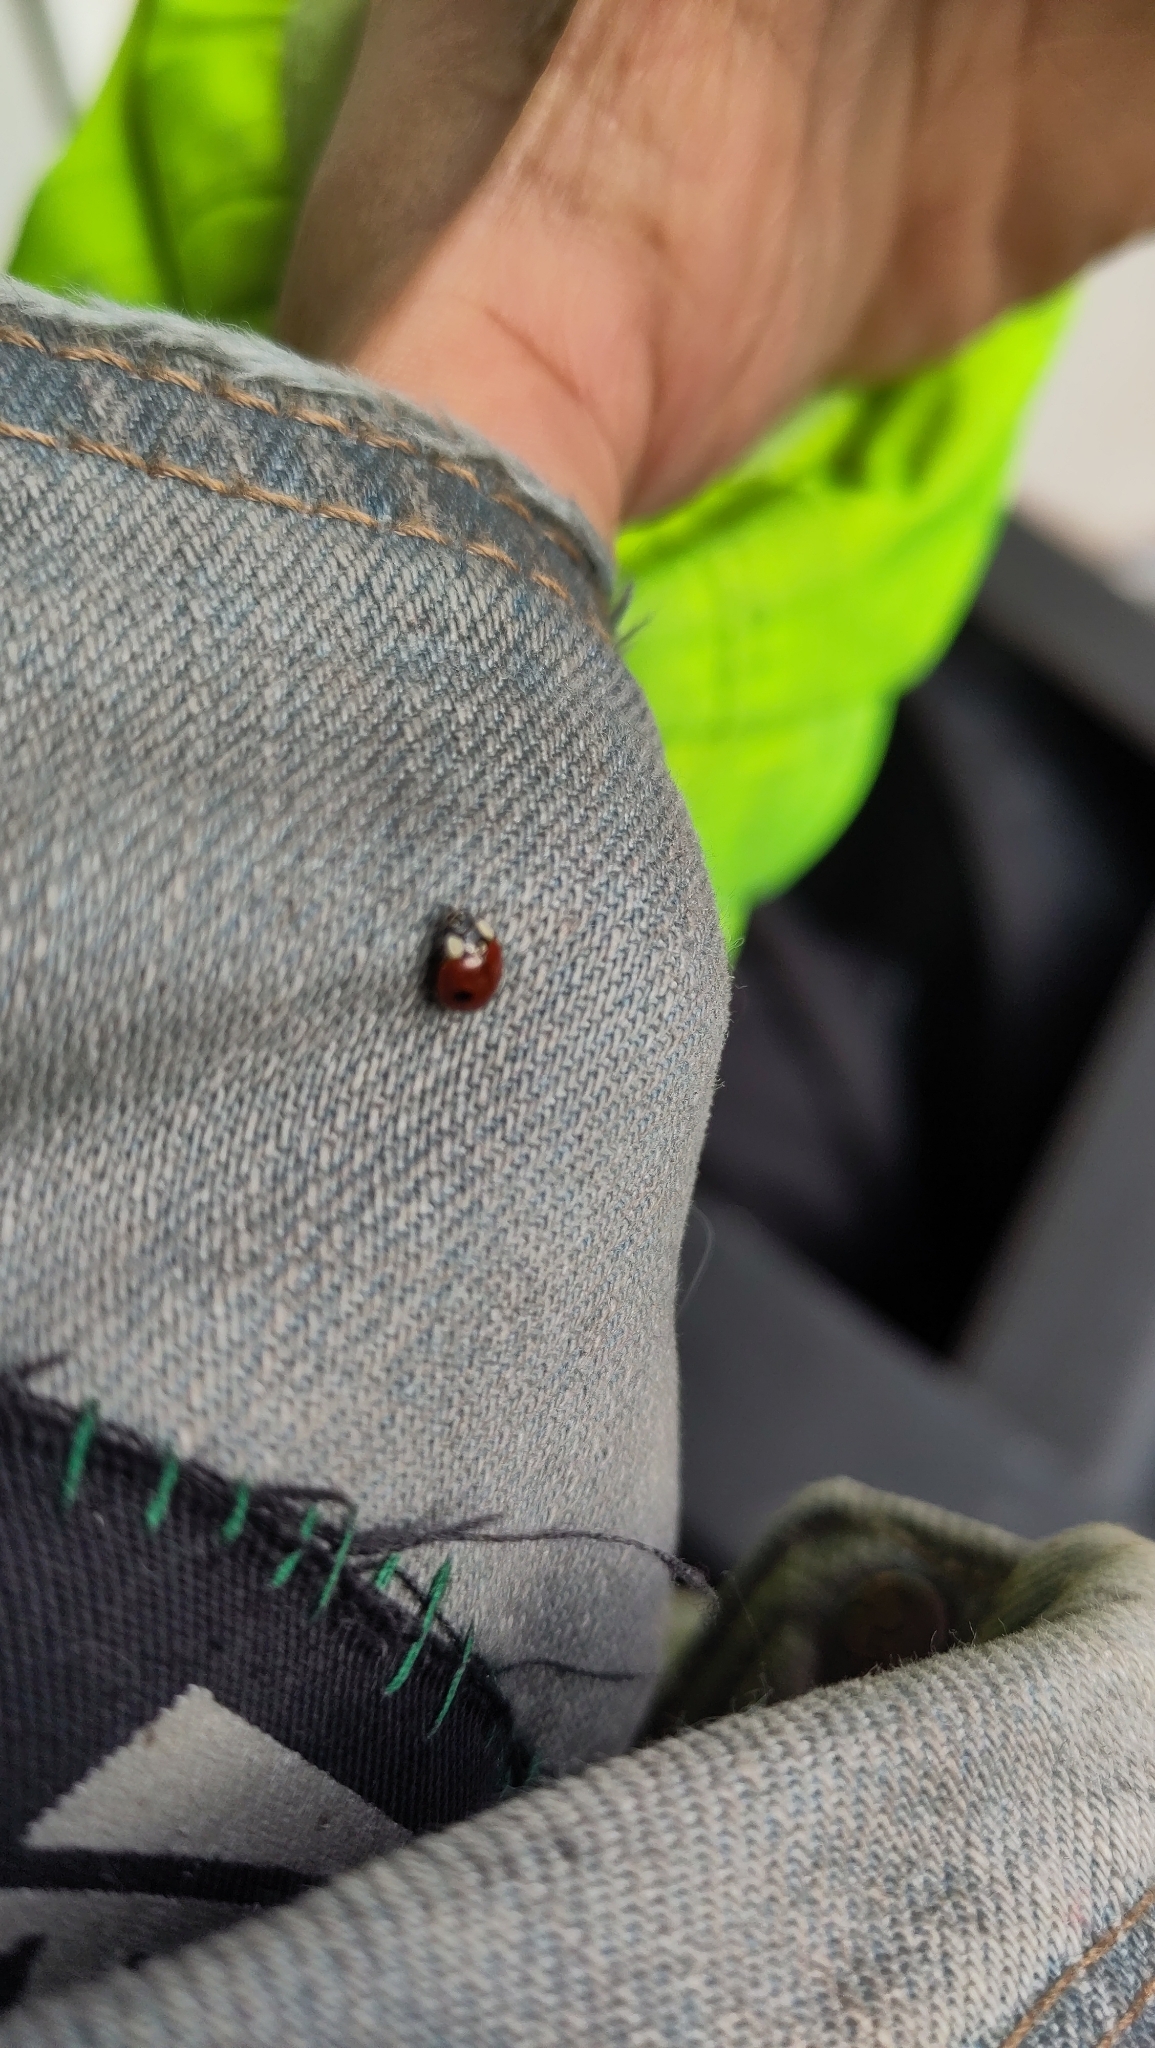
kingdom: Animalia
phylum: Arthropoda
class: Insecta
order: Coleoptera
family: Coccinellidae
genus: Adalia
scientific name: Adalia bipunctata
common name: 2-spot ladybird
